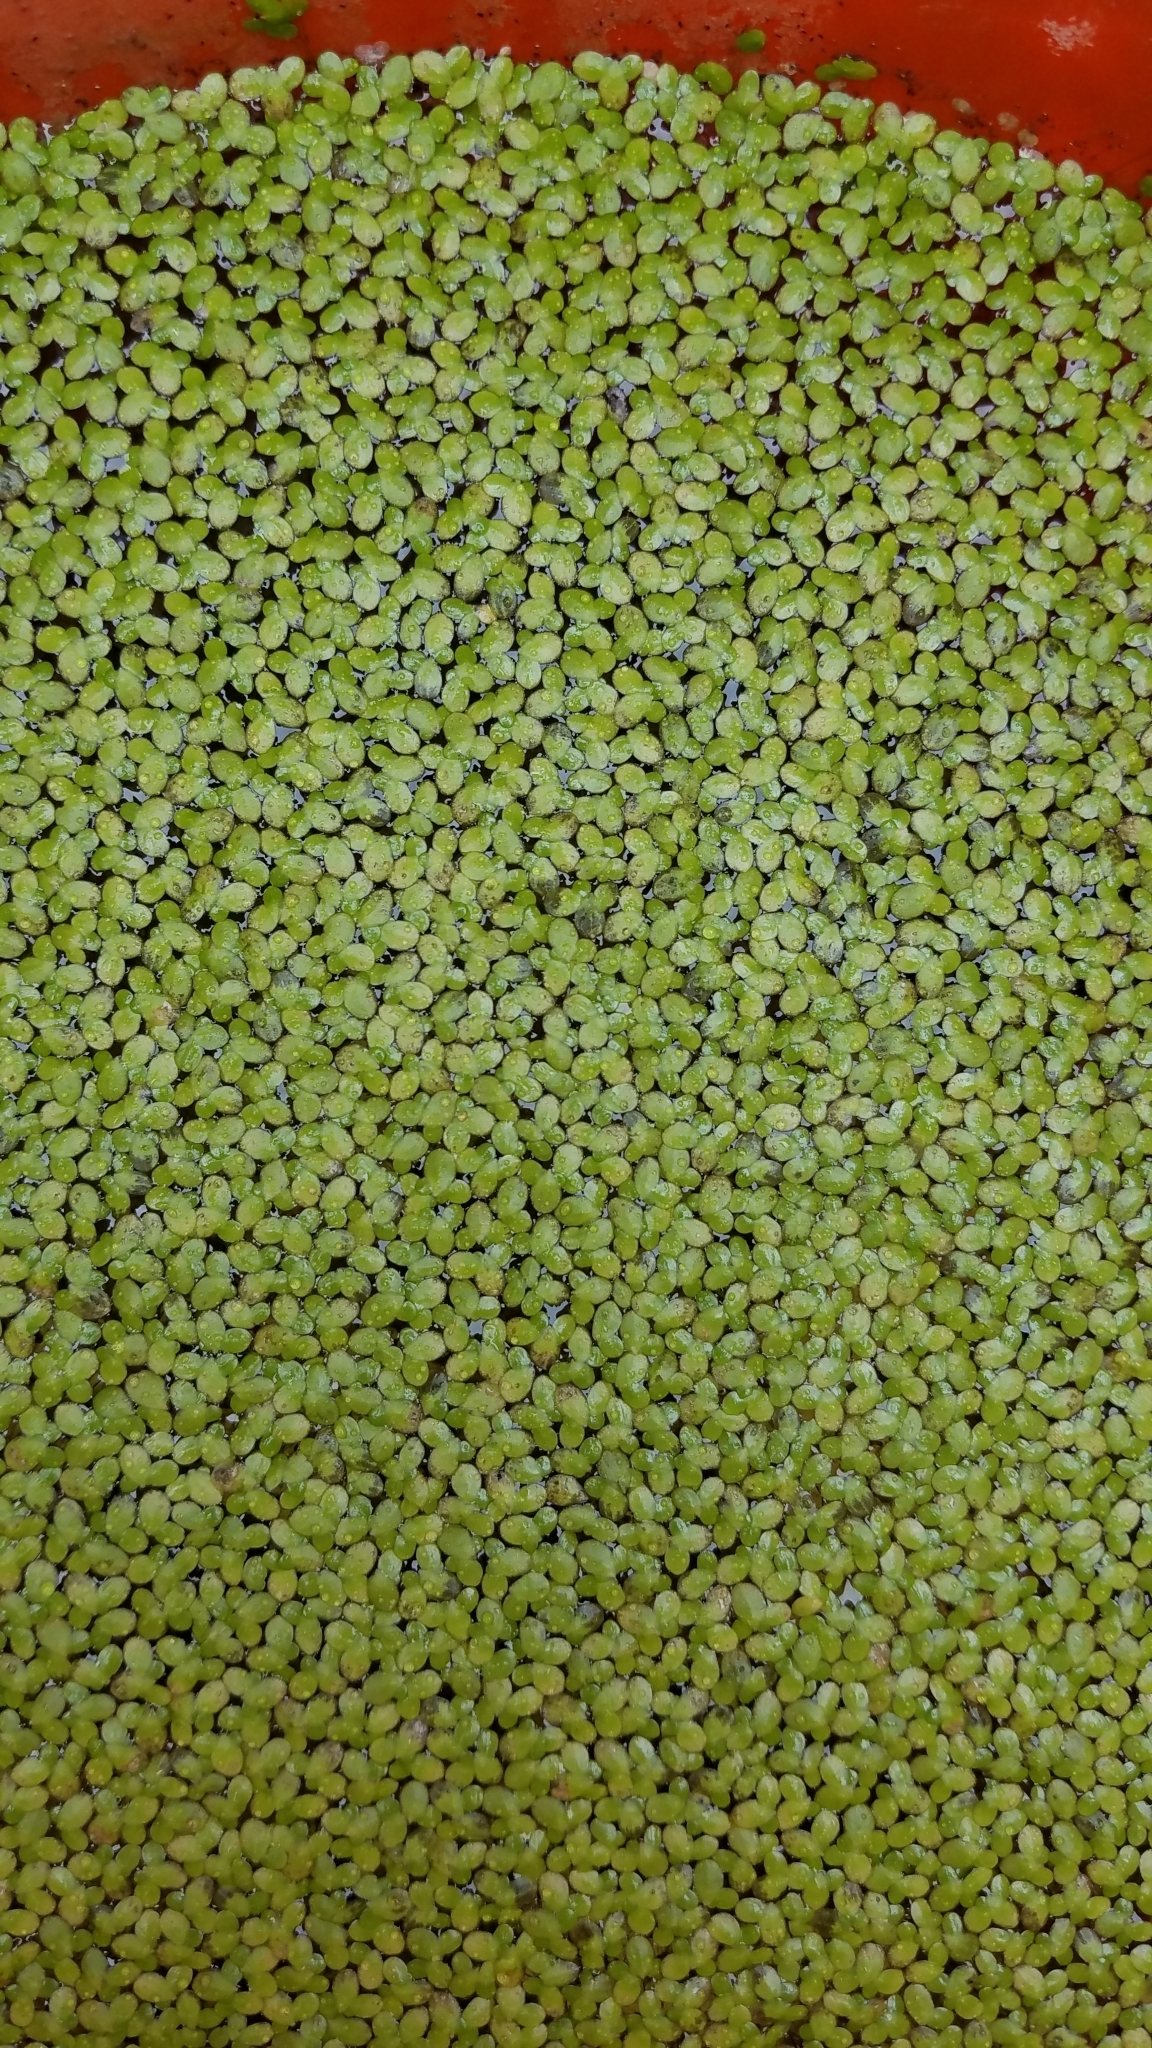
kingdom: Plantae
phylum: Tracheophyta
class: Liliopsida
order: Alismatales
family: Araceae
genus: Lemna
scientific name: Lemna minor
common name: Common duckweed
